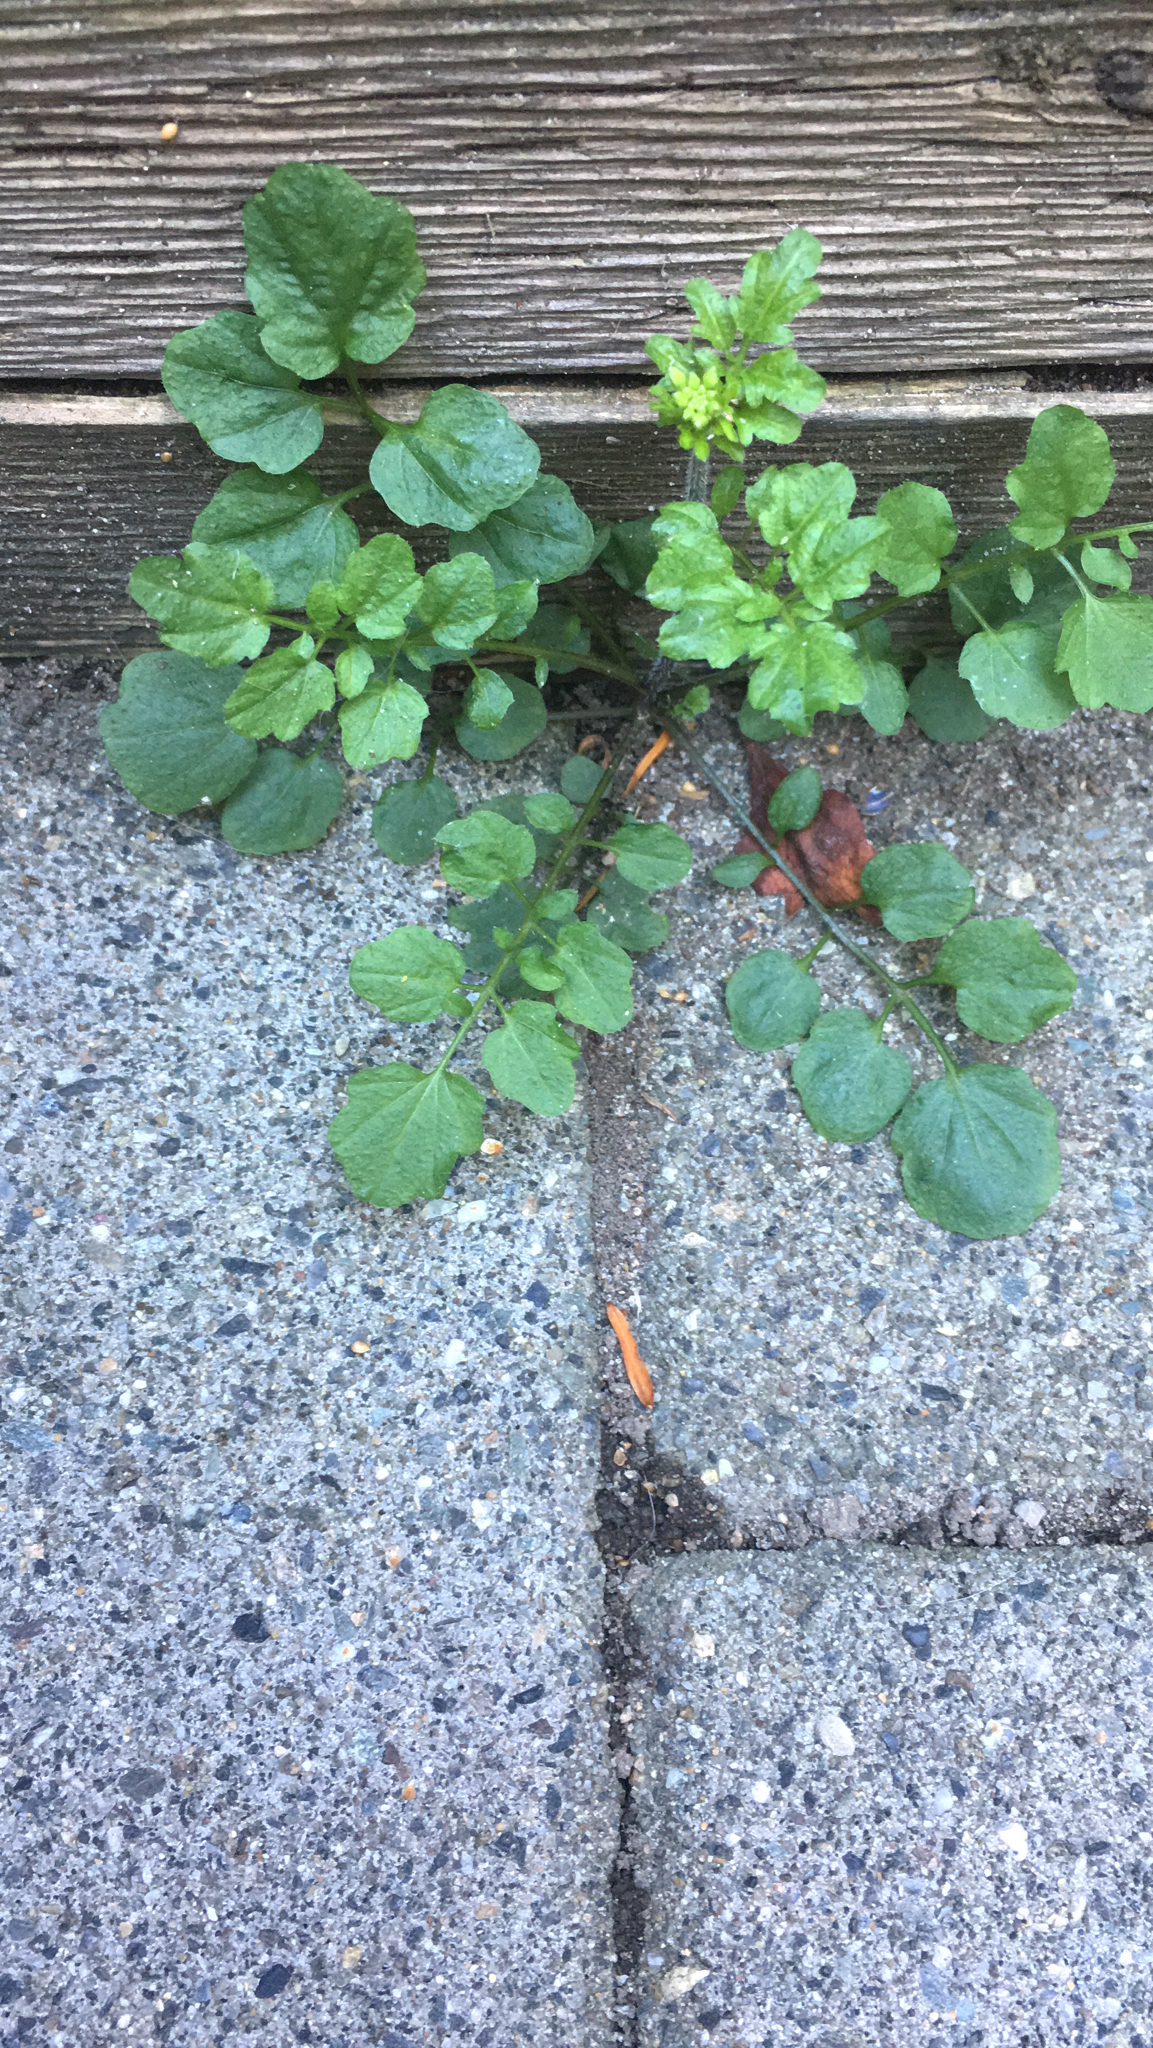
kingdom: Plantae
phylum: Tracheophyta
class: Magnoliopsida
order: Brassicales
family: Brassicaceae
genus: Cardamine
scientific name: Cardamine flexuosa
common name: Woodland bittercress
